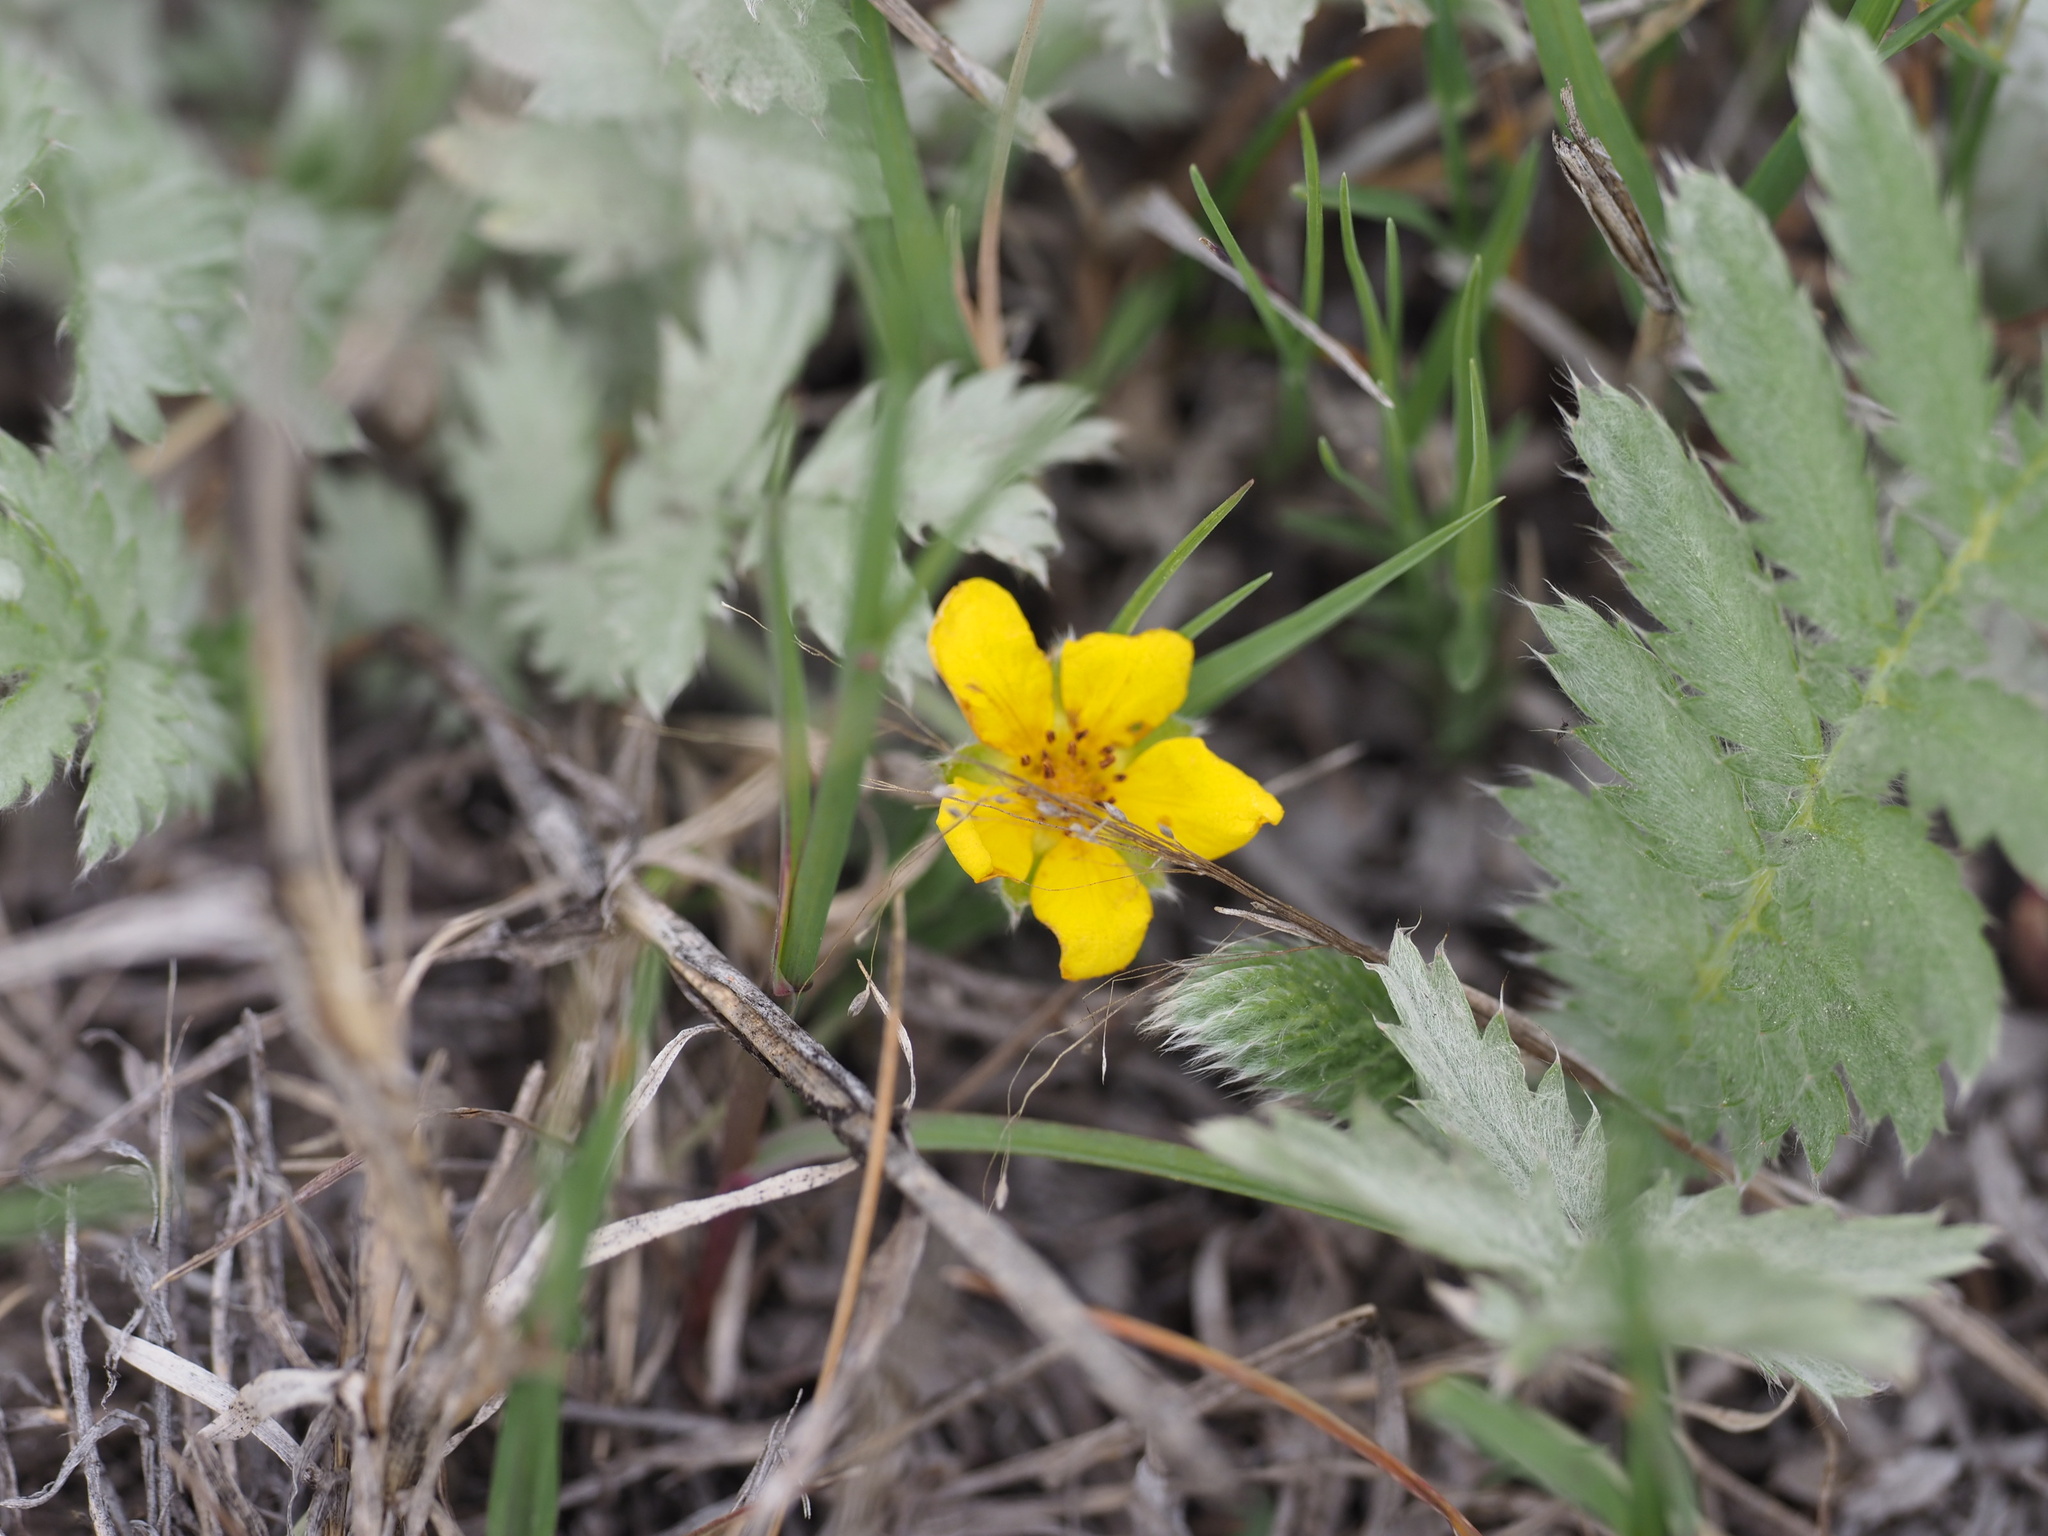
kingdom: Plantae
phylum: Tracheophyta
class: Magnoliopsida
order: Rosales
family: Rosaceae
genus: Argentina
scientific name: Argentina anserina
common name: Common silverweed
